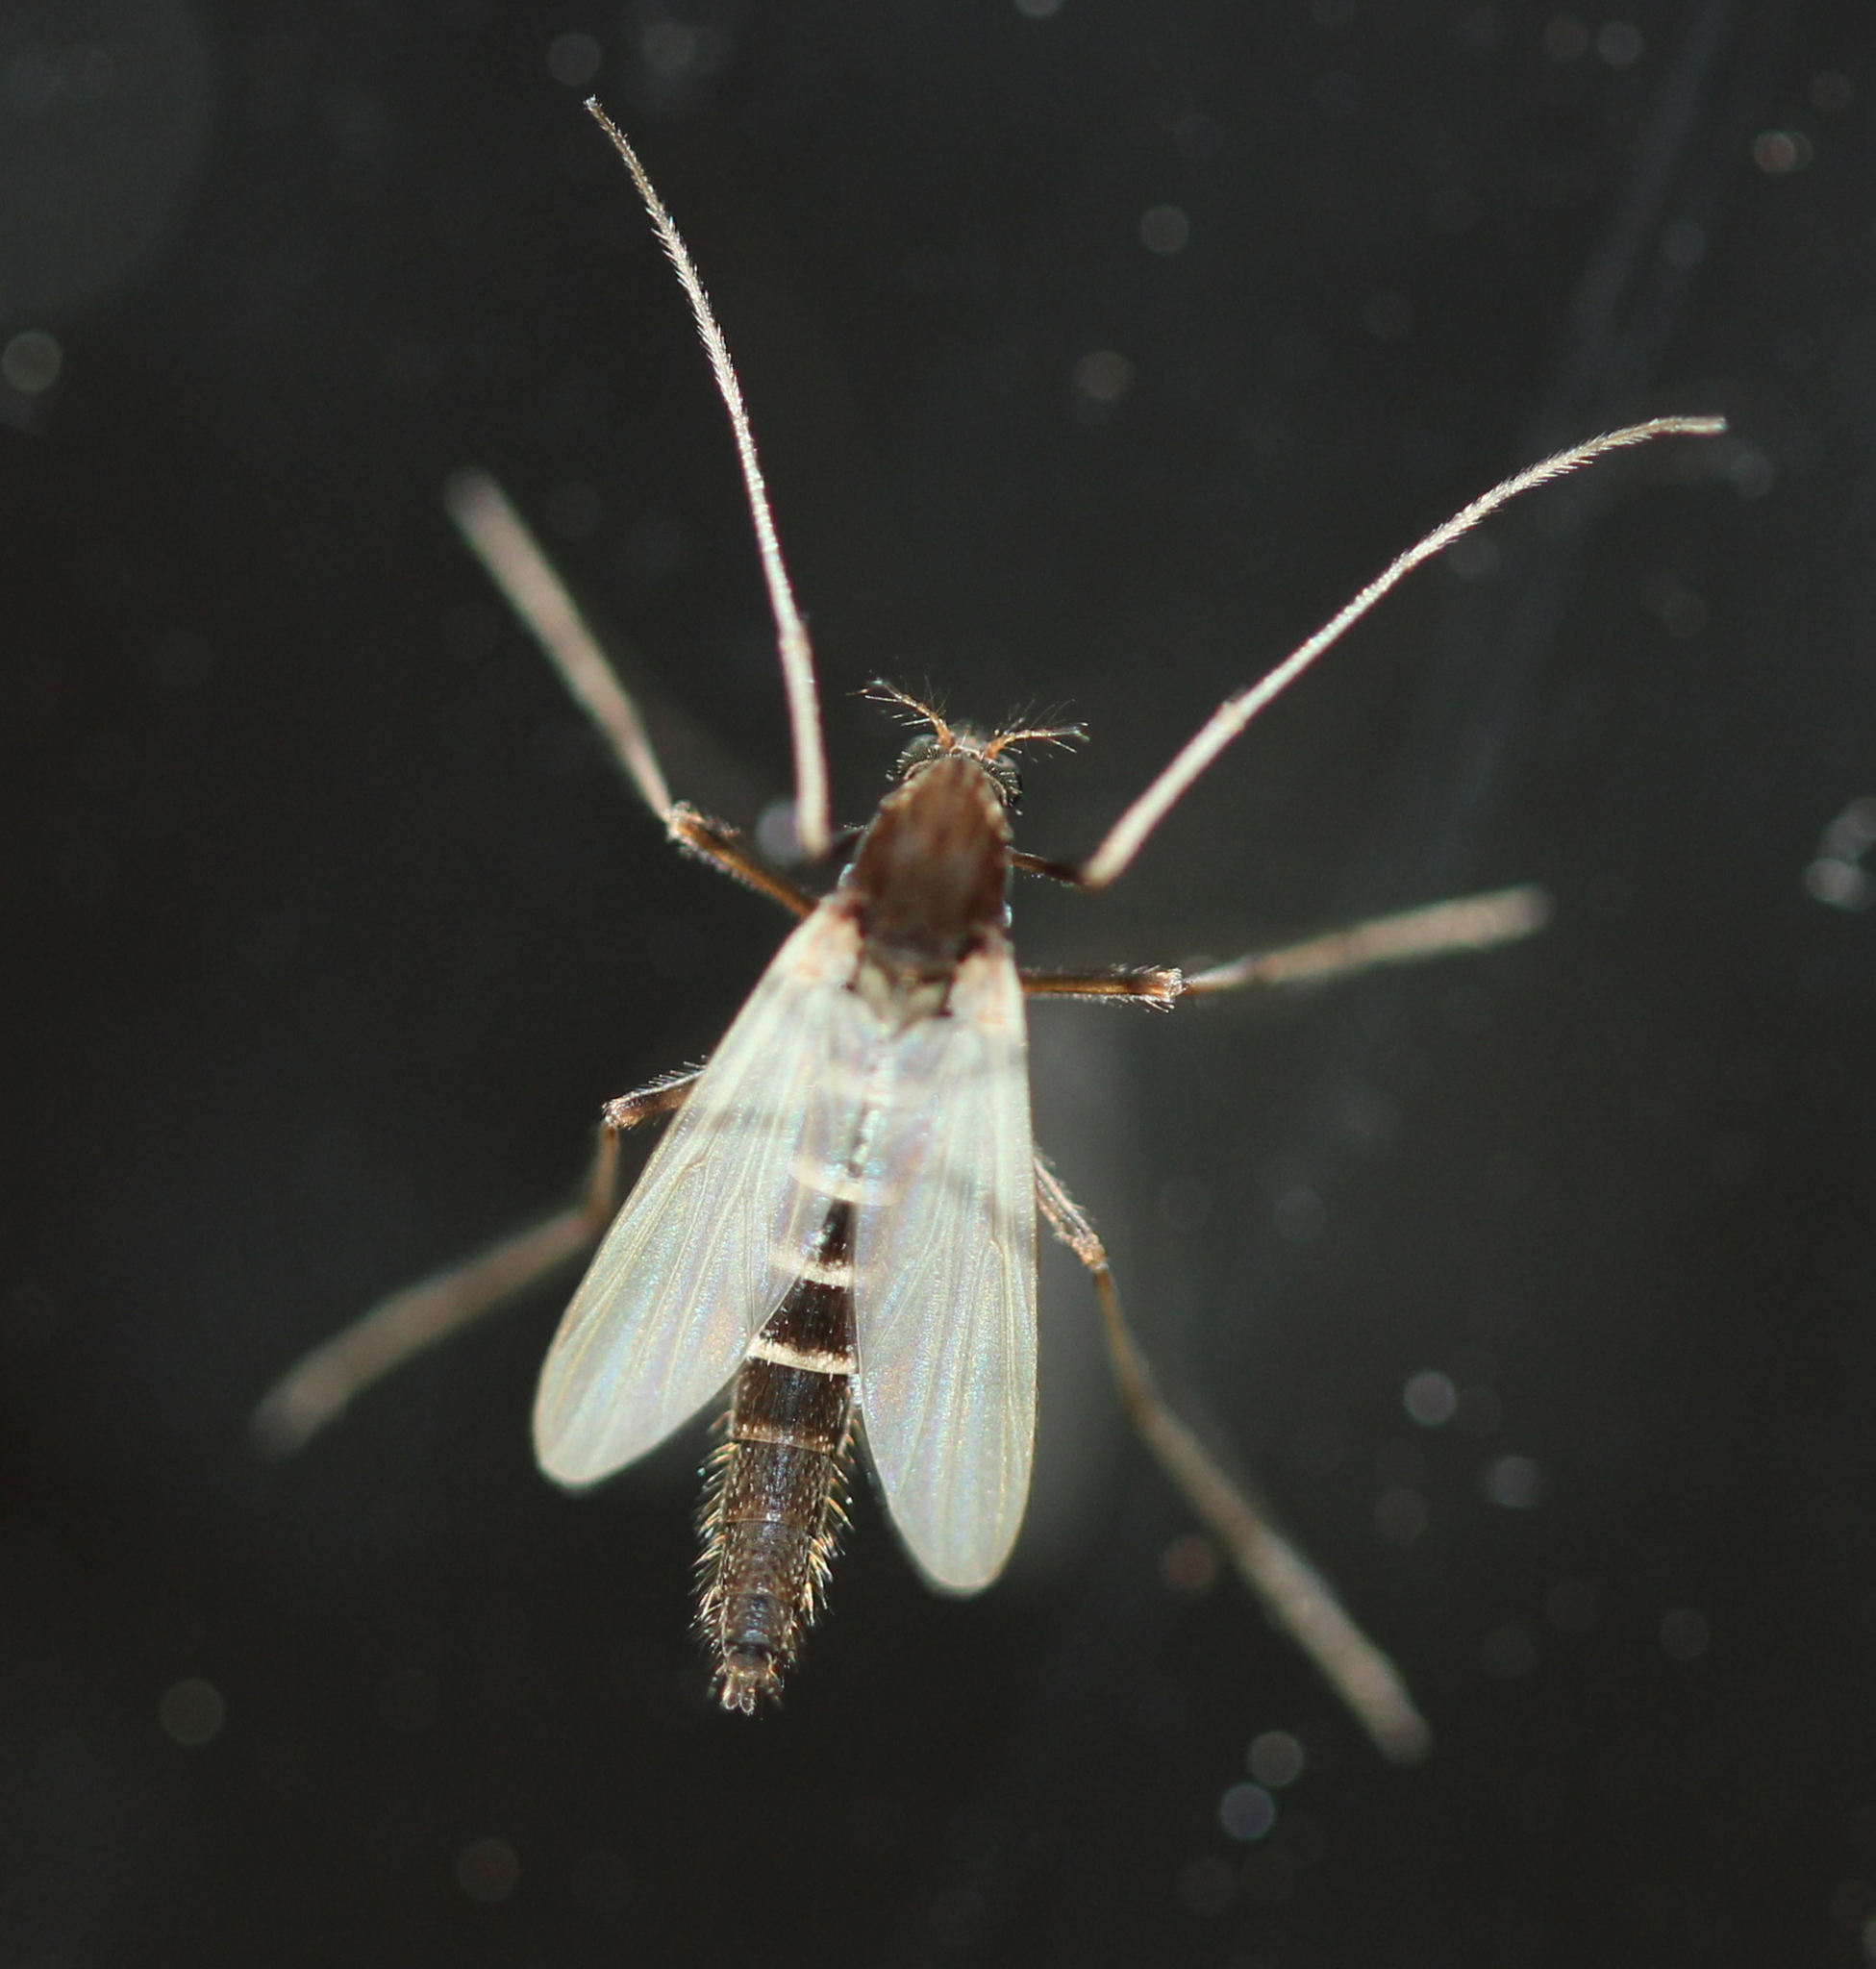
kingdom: Animalia
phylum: Arthropoda
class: Insecta
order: Diptera
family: Chironomidae
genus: Stictochironomus
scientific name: Stictochironomus albicrus
